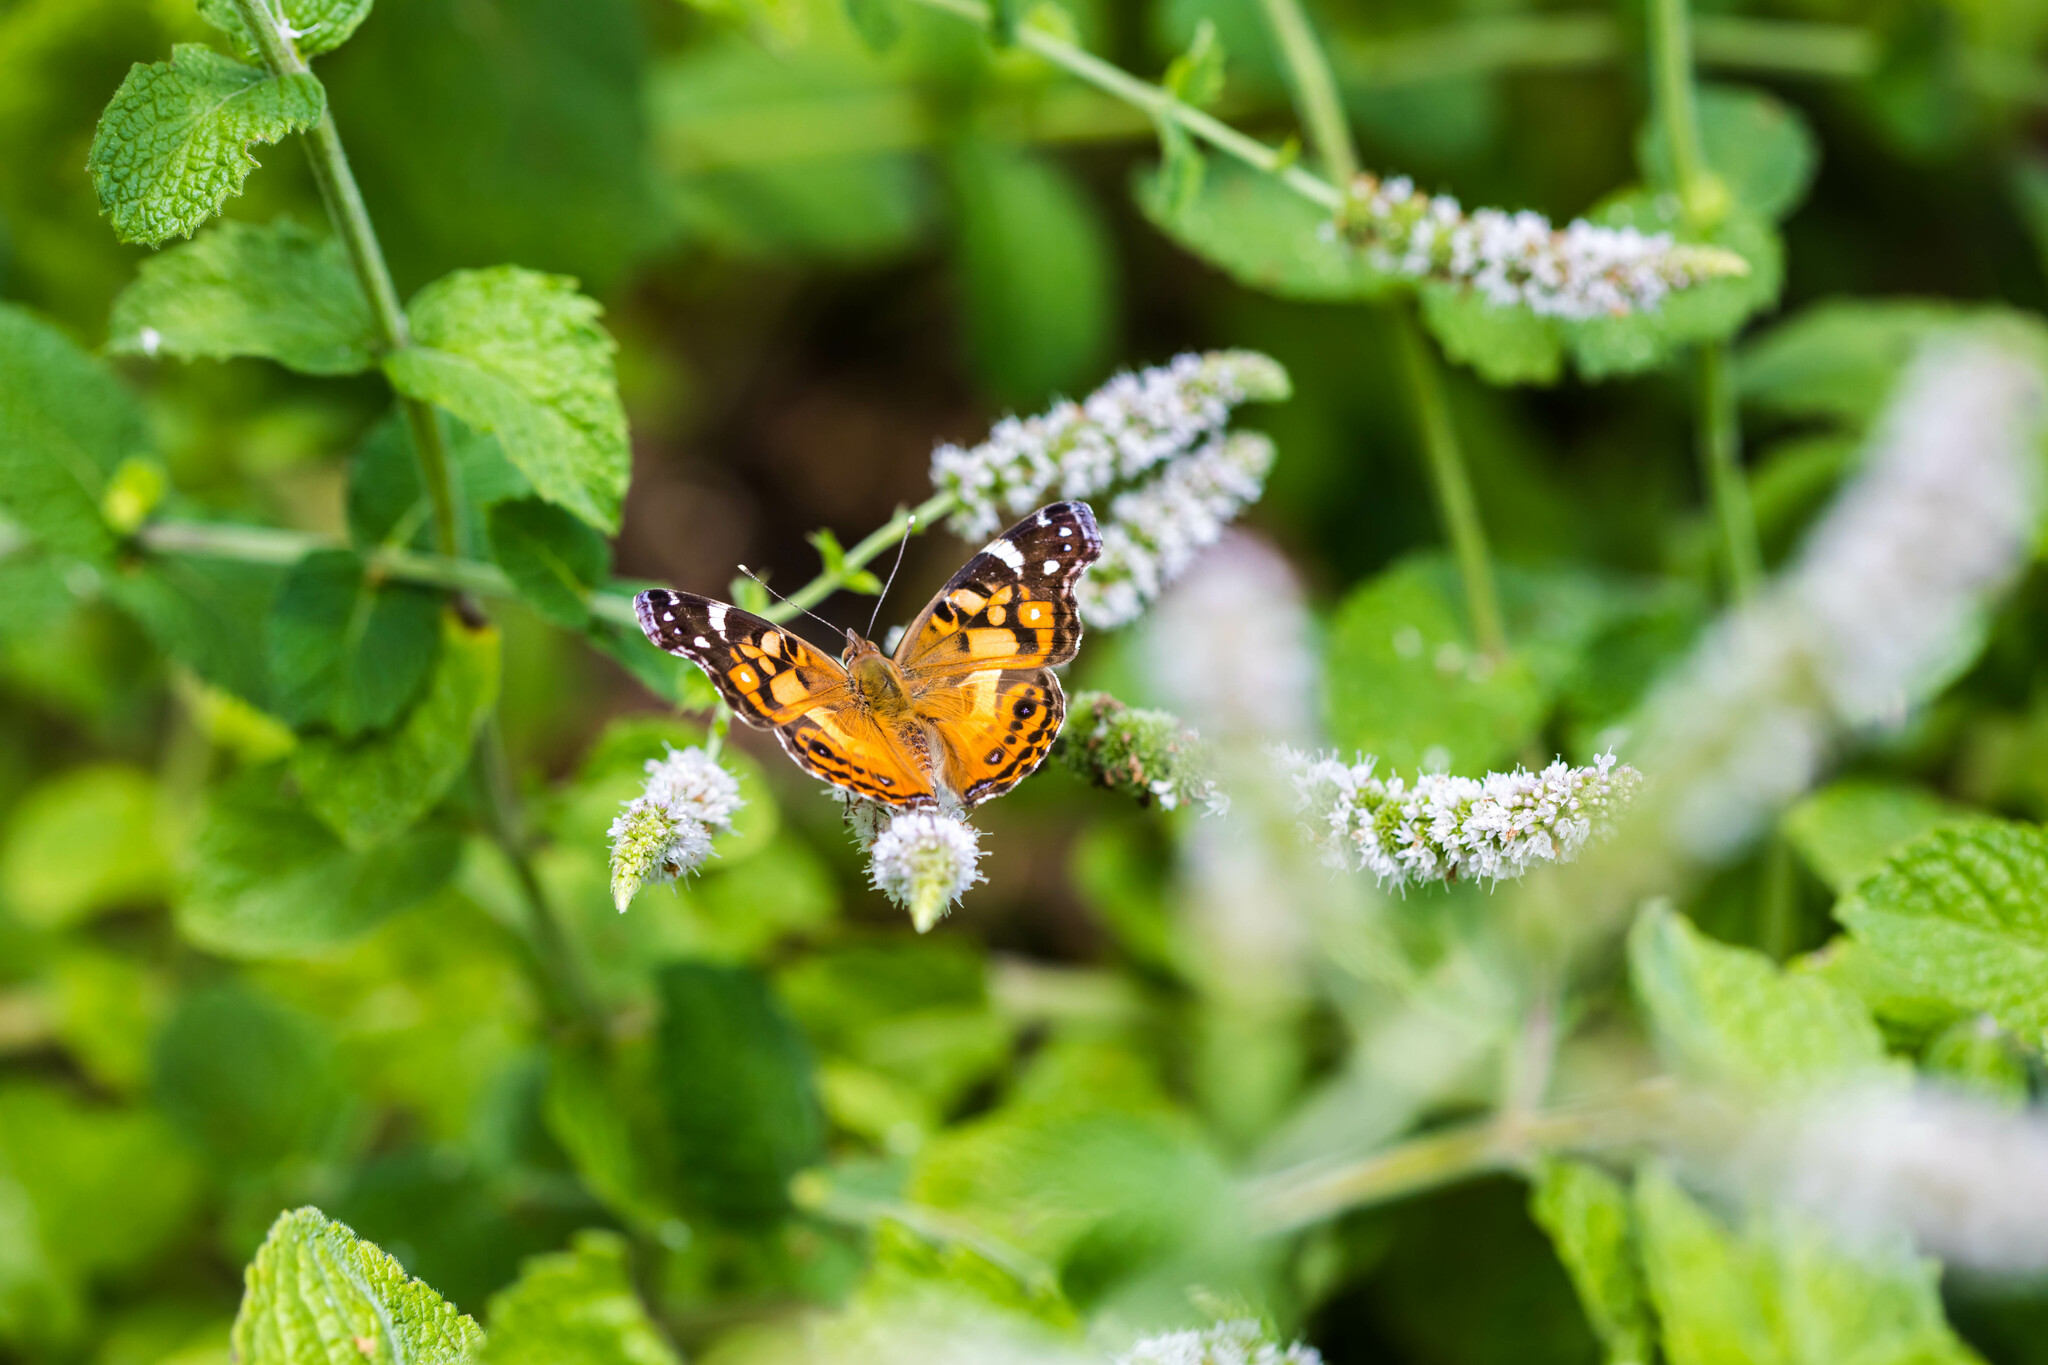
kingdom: Animalia
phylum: Arthropoda
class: Insecta
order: Lepidoptera
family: Nymphalidae
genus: Vanessa
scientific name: Vanessa virginiensis
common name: American lady
